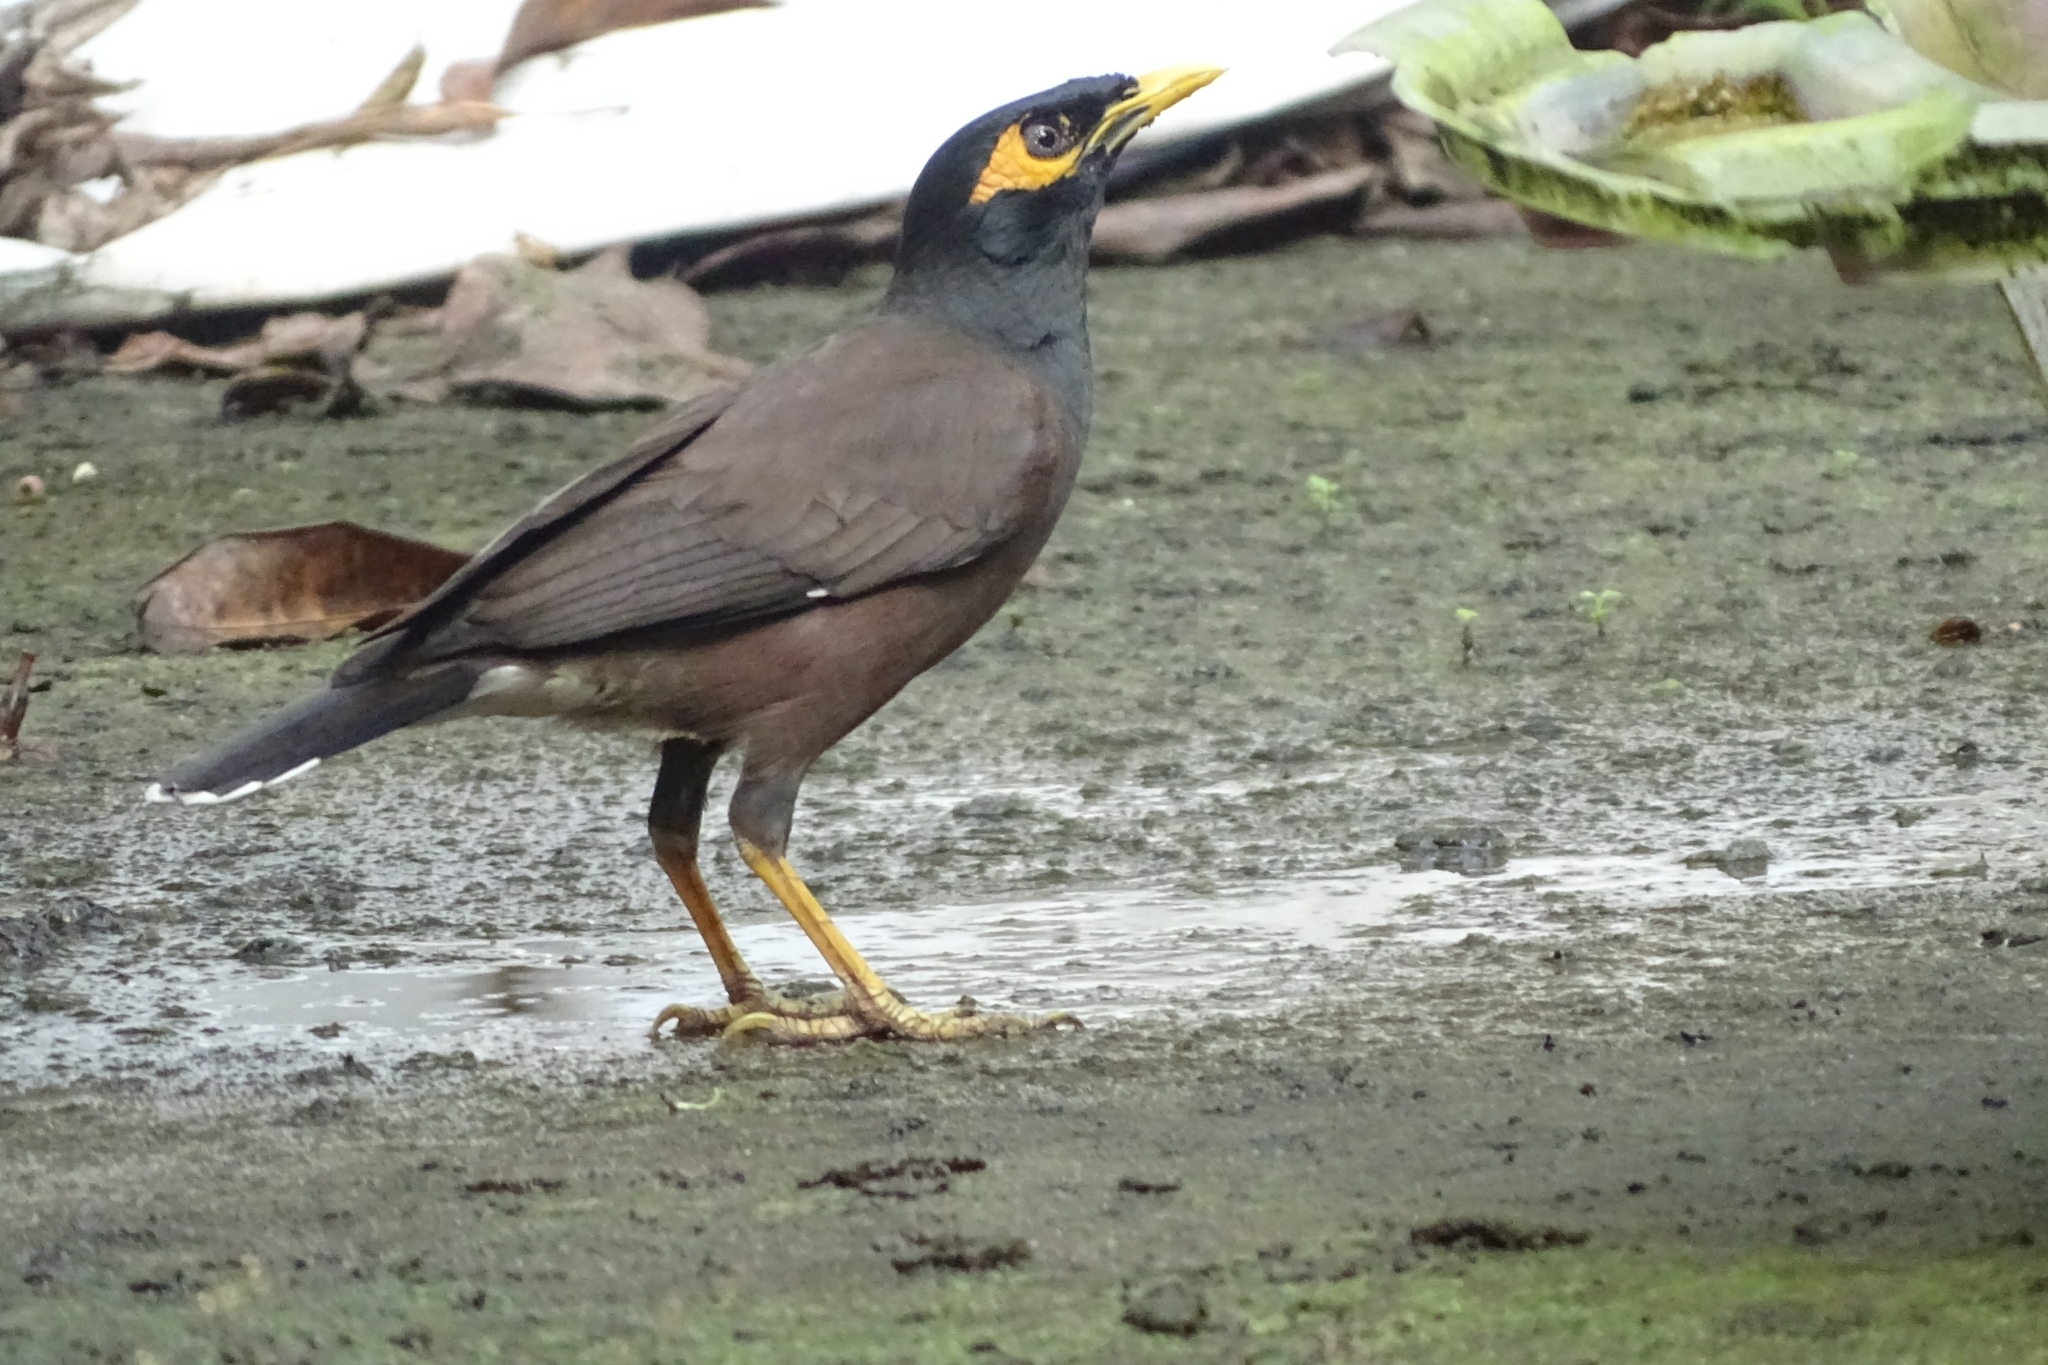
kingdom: Animalia
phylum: Chordata
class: Aves
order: Passeriformes
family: Sturnidae
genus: Acridotheres
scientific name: Acridotheres tristis
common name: Common myna
